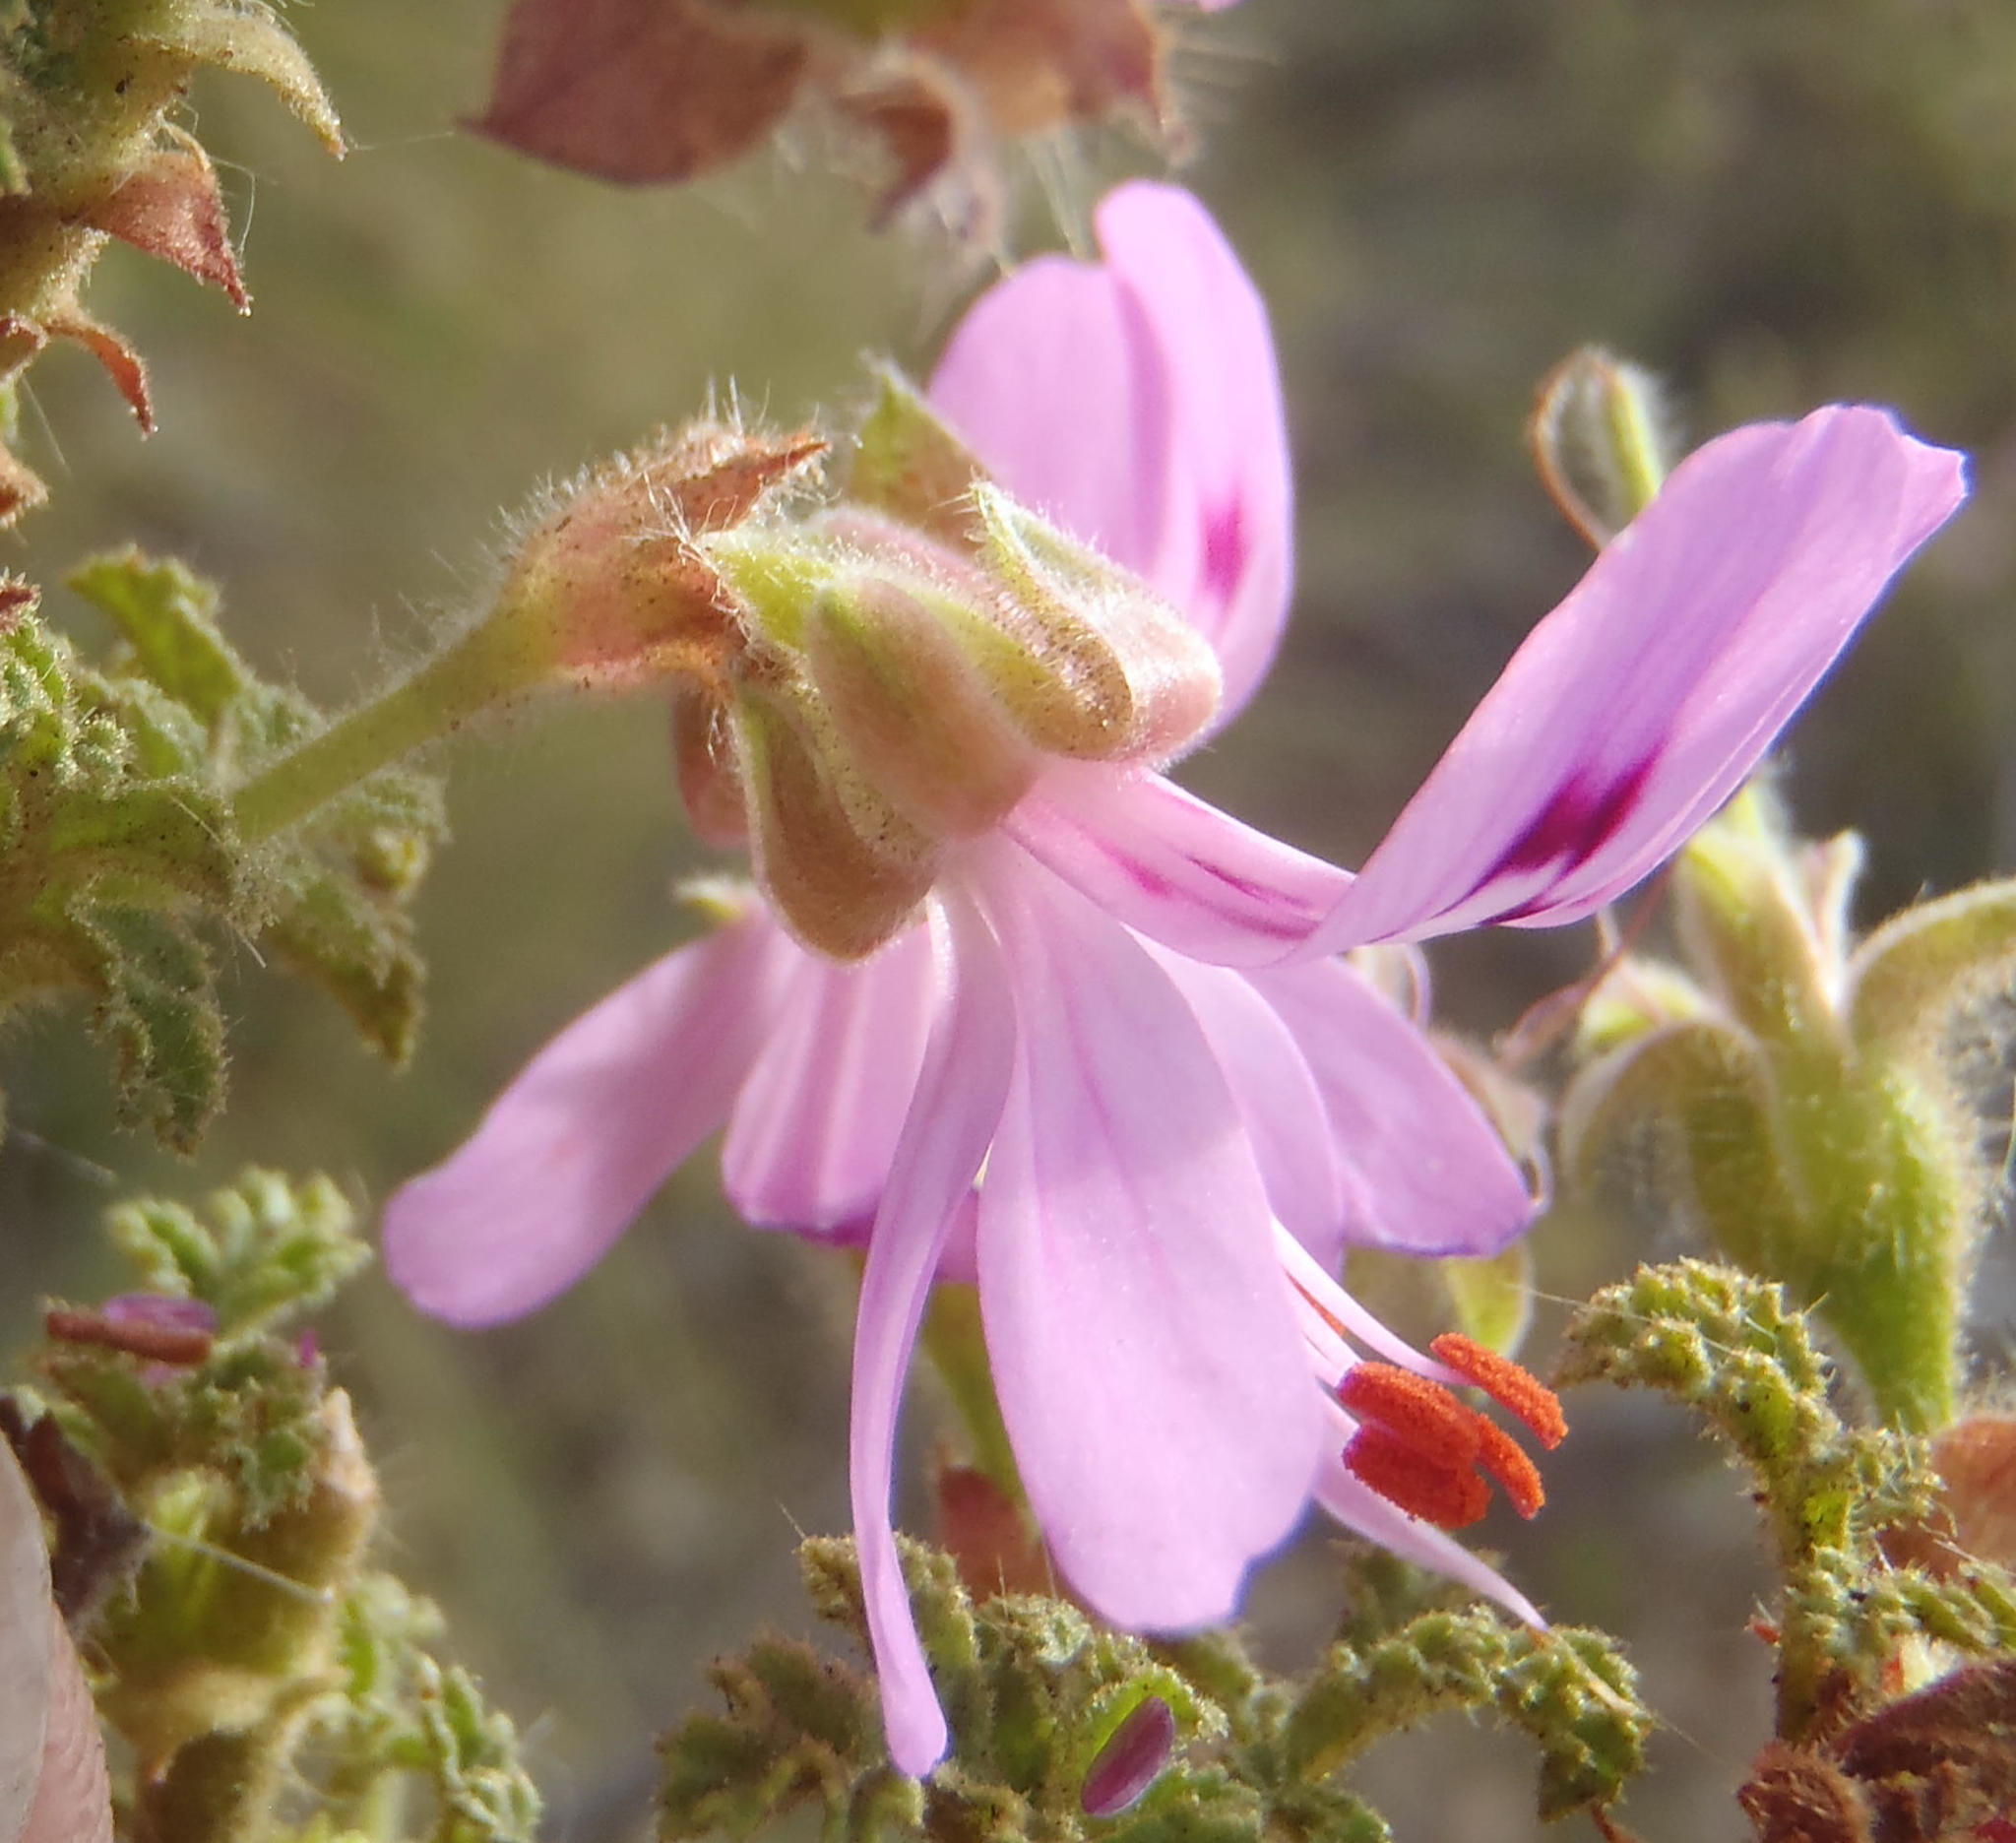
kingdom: Plantae
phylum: Tracheophyta
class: Magnoliopsida
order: Geraniales
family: Geraniaceae
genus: Pelargonium
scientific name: Pelargonium glutinosum
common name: Pheasant-foot geranium
